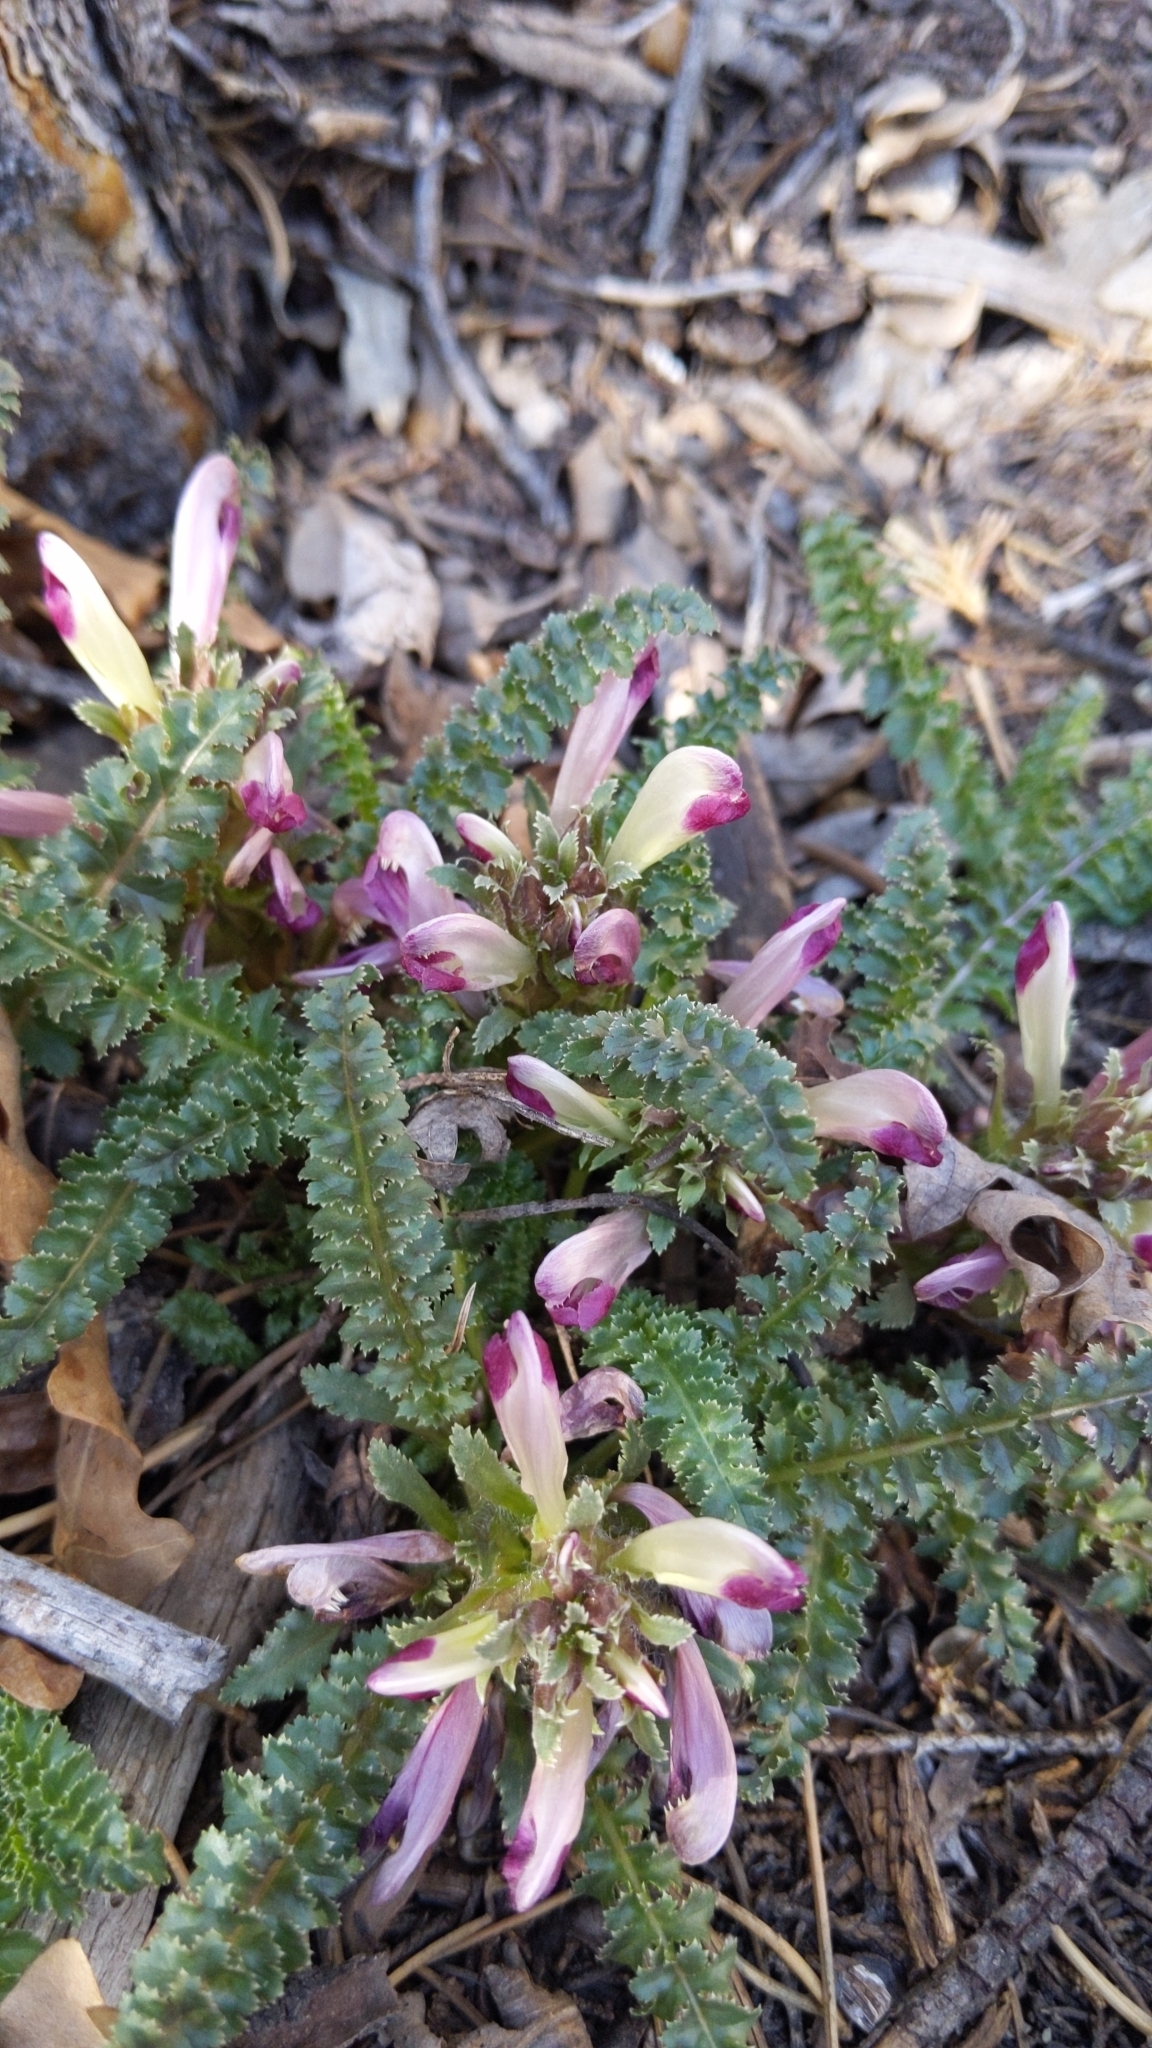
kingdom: Plantae
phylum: Tracheophyta
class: Magnoliopsida
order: Lamiales
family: Orobanchaceae
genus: Pedicularis
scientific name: Pedicularis centranthera
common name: Dwarf lousewort
